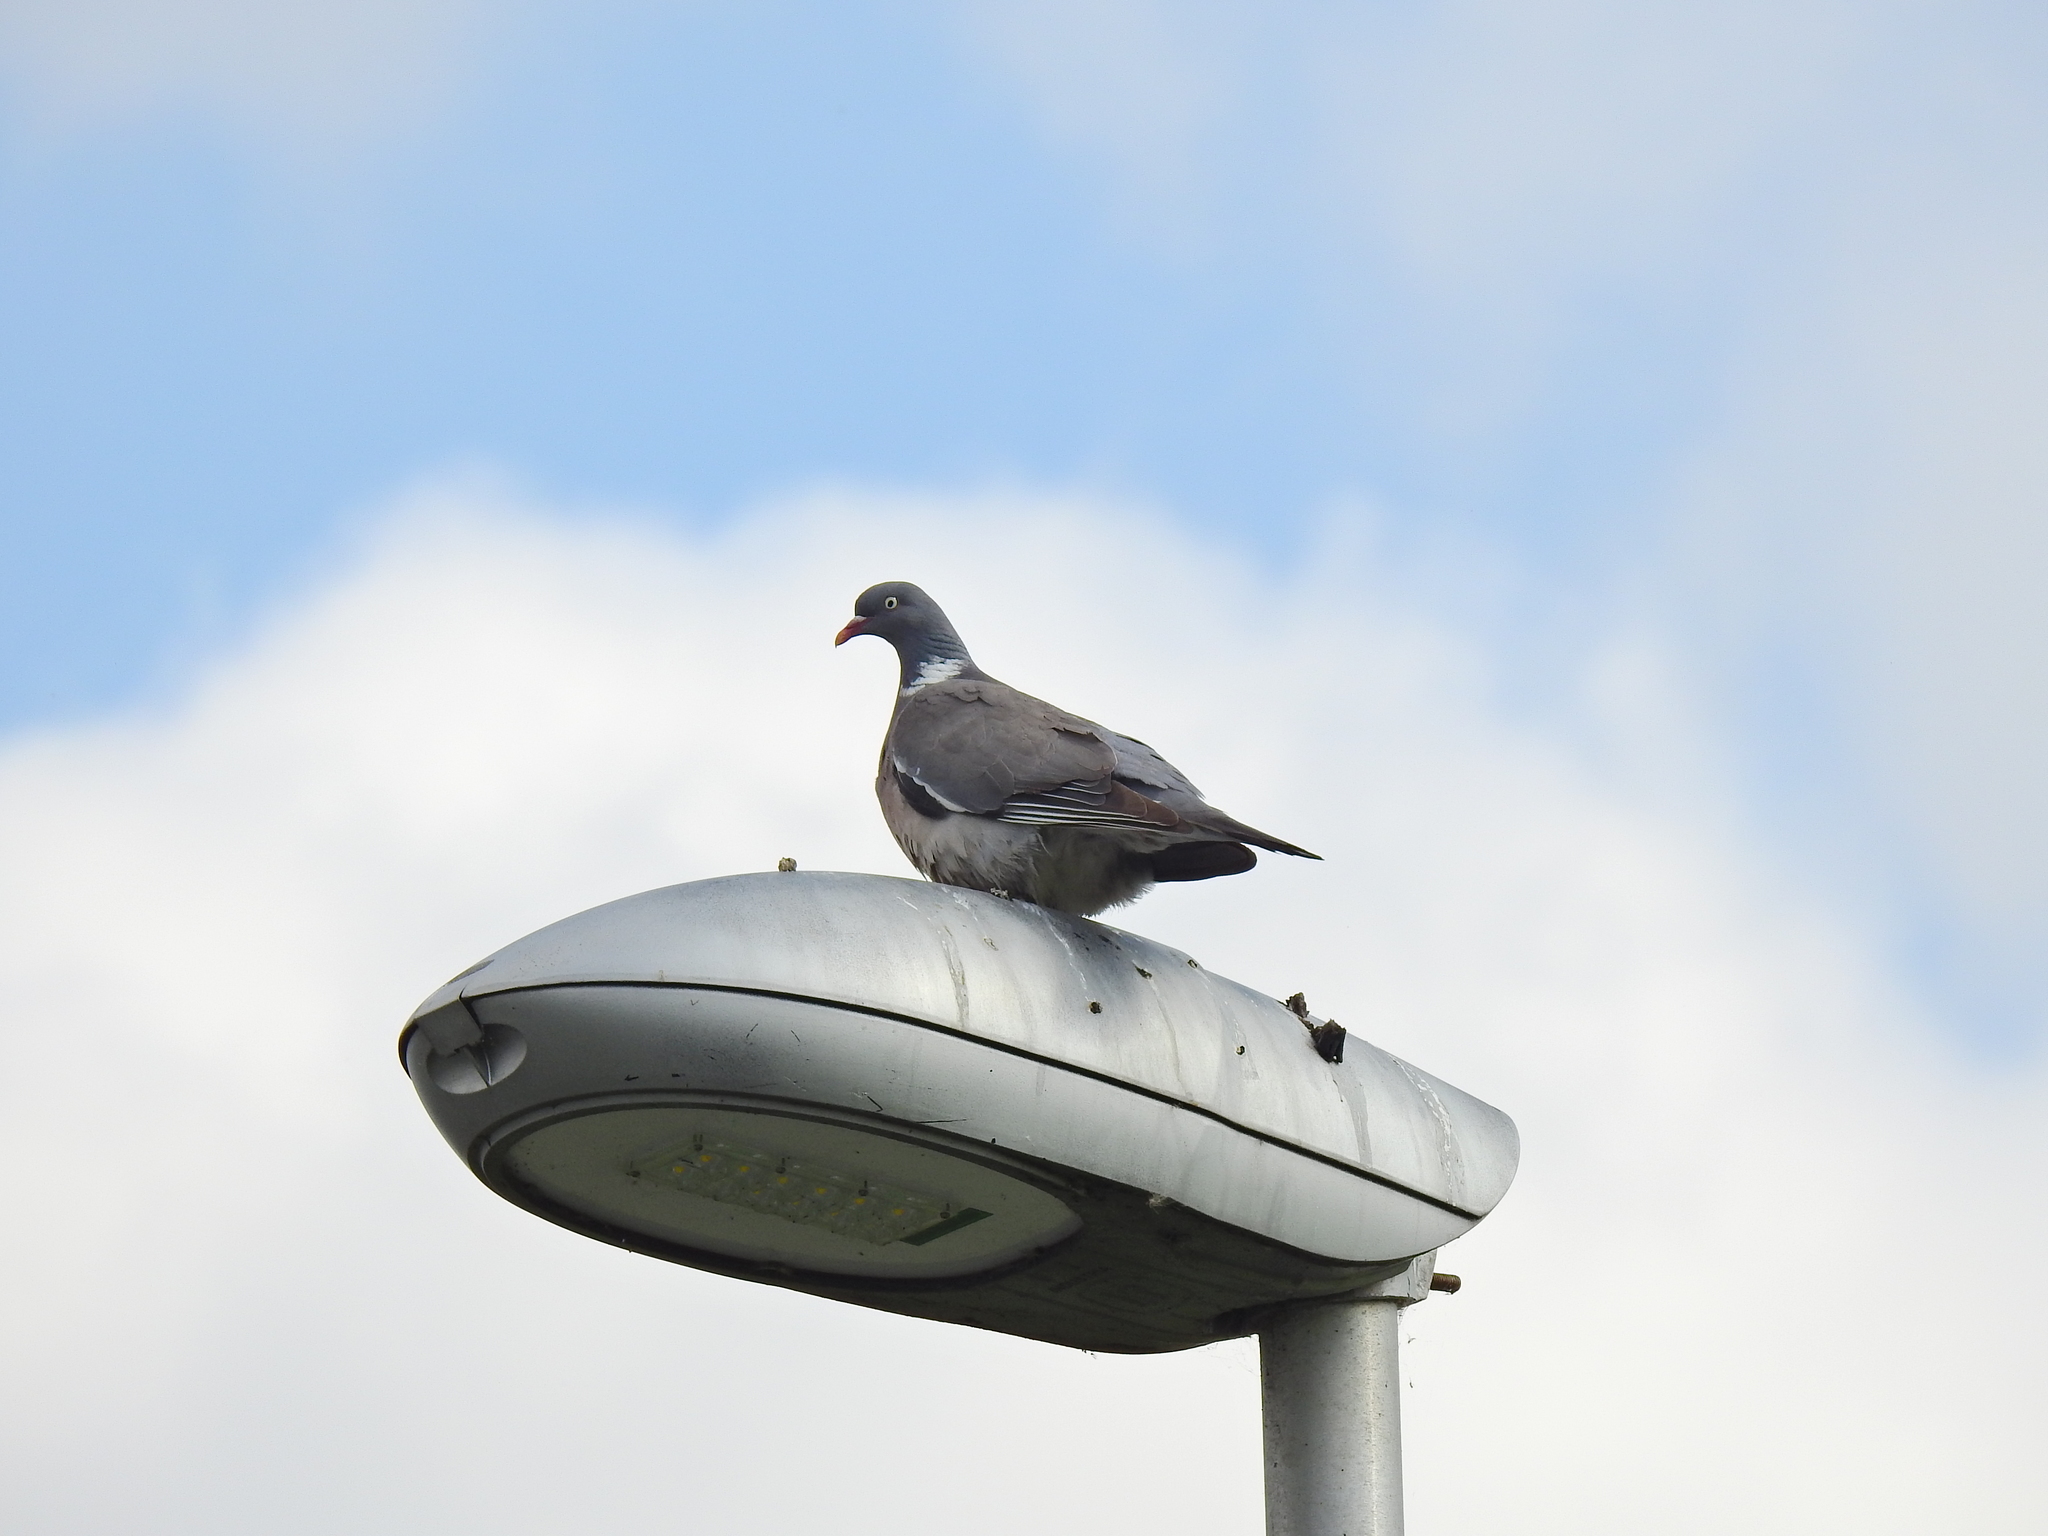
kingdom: Animalia
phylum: Chordata
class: Aves
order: Columbiformes
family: Columbidae
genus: Columba
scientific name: Columba palumbus
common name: Common wood pigeon
